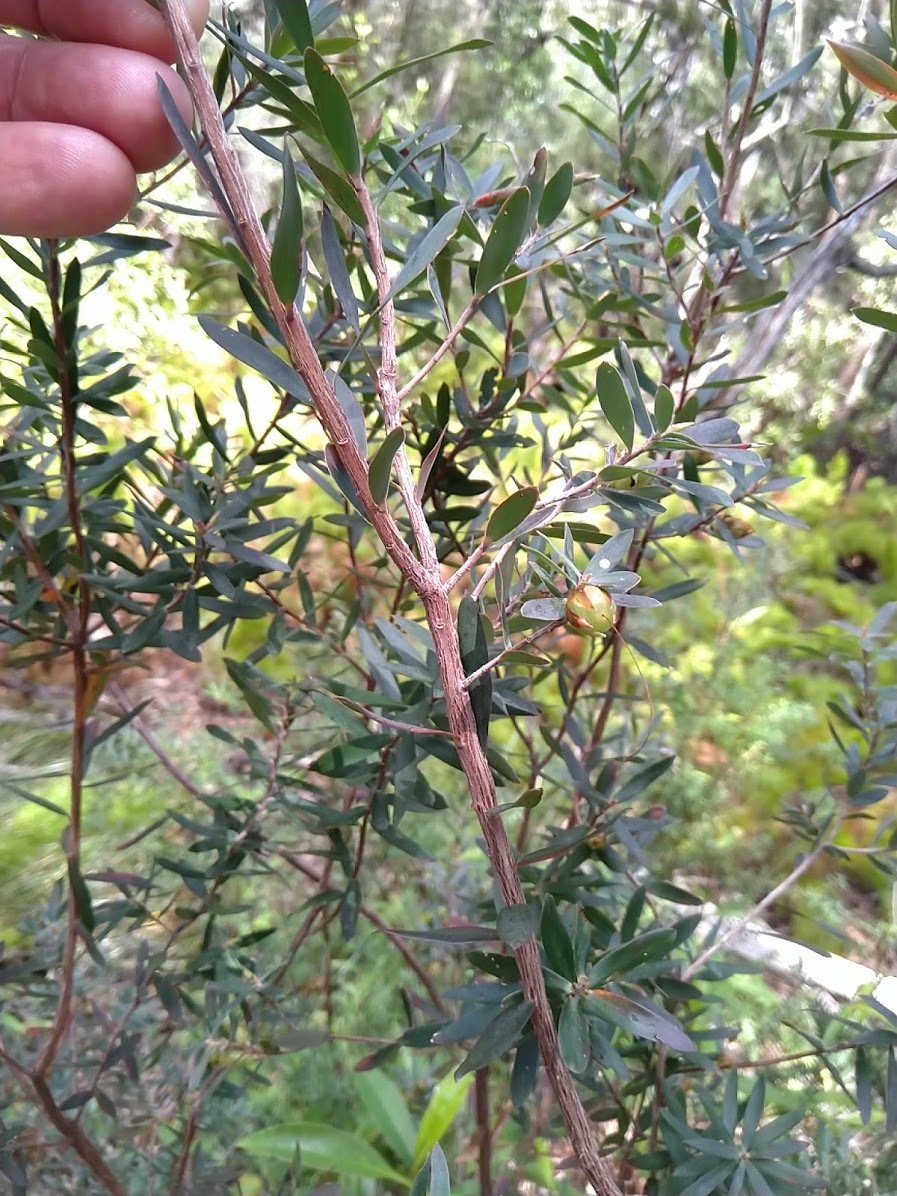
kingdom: Plantae
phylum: Tracheophyta
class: Magnoliopsida
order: Ericales
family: Ericaceae
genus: Styphelia
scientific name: Styphelia viridis
